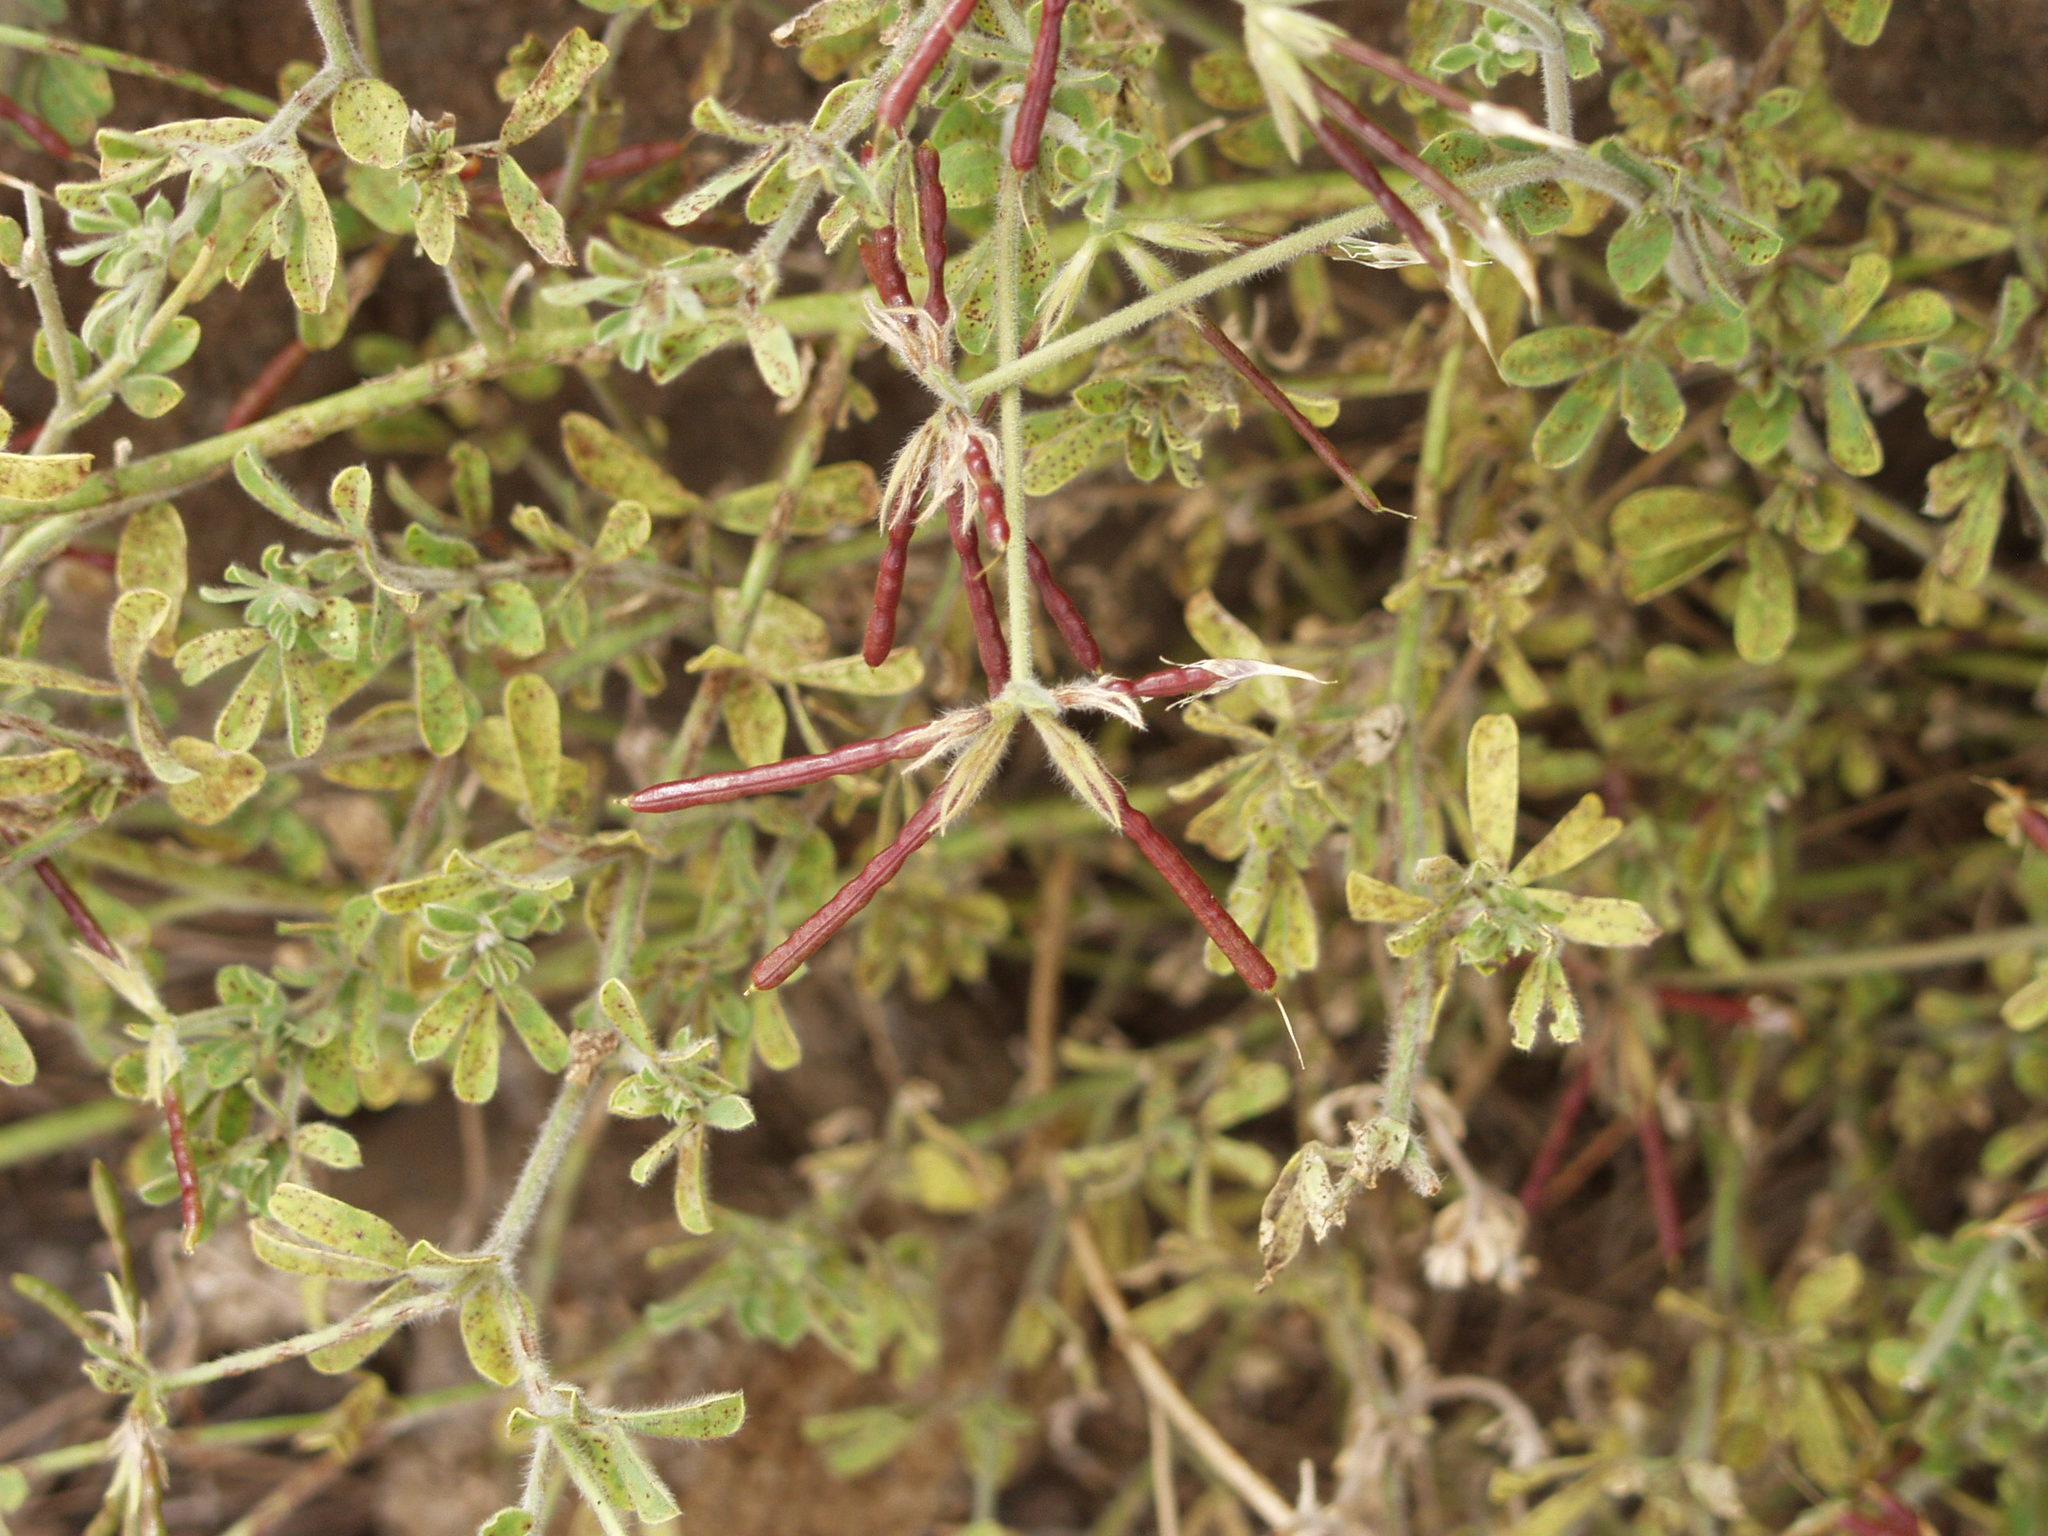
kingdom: Plantae
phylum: Tracheophyta
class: Magnoliopsida
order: Fabales
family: Fabaceae
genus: Lotus
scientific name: Lotus campylocladus
